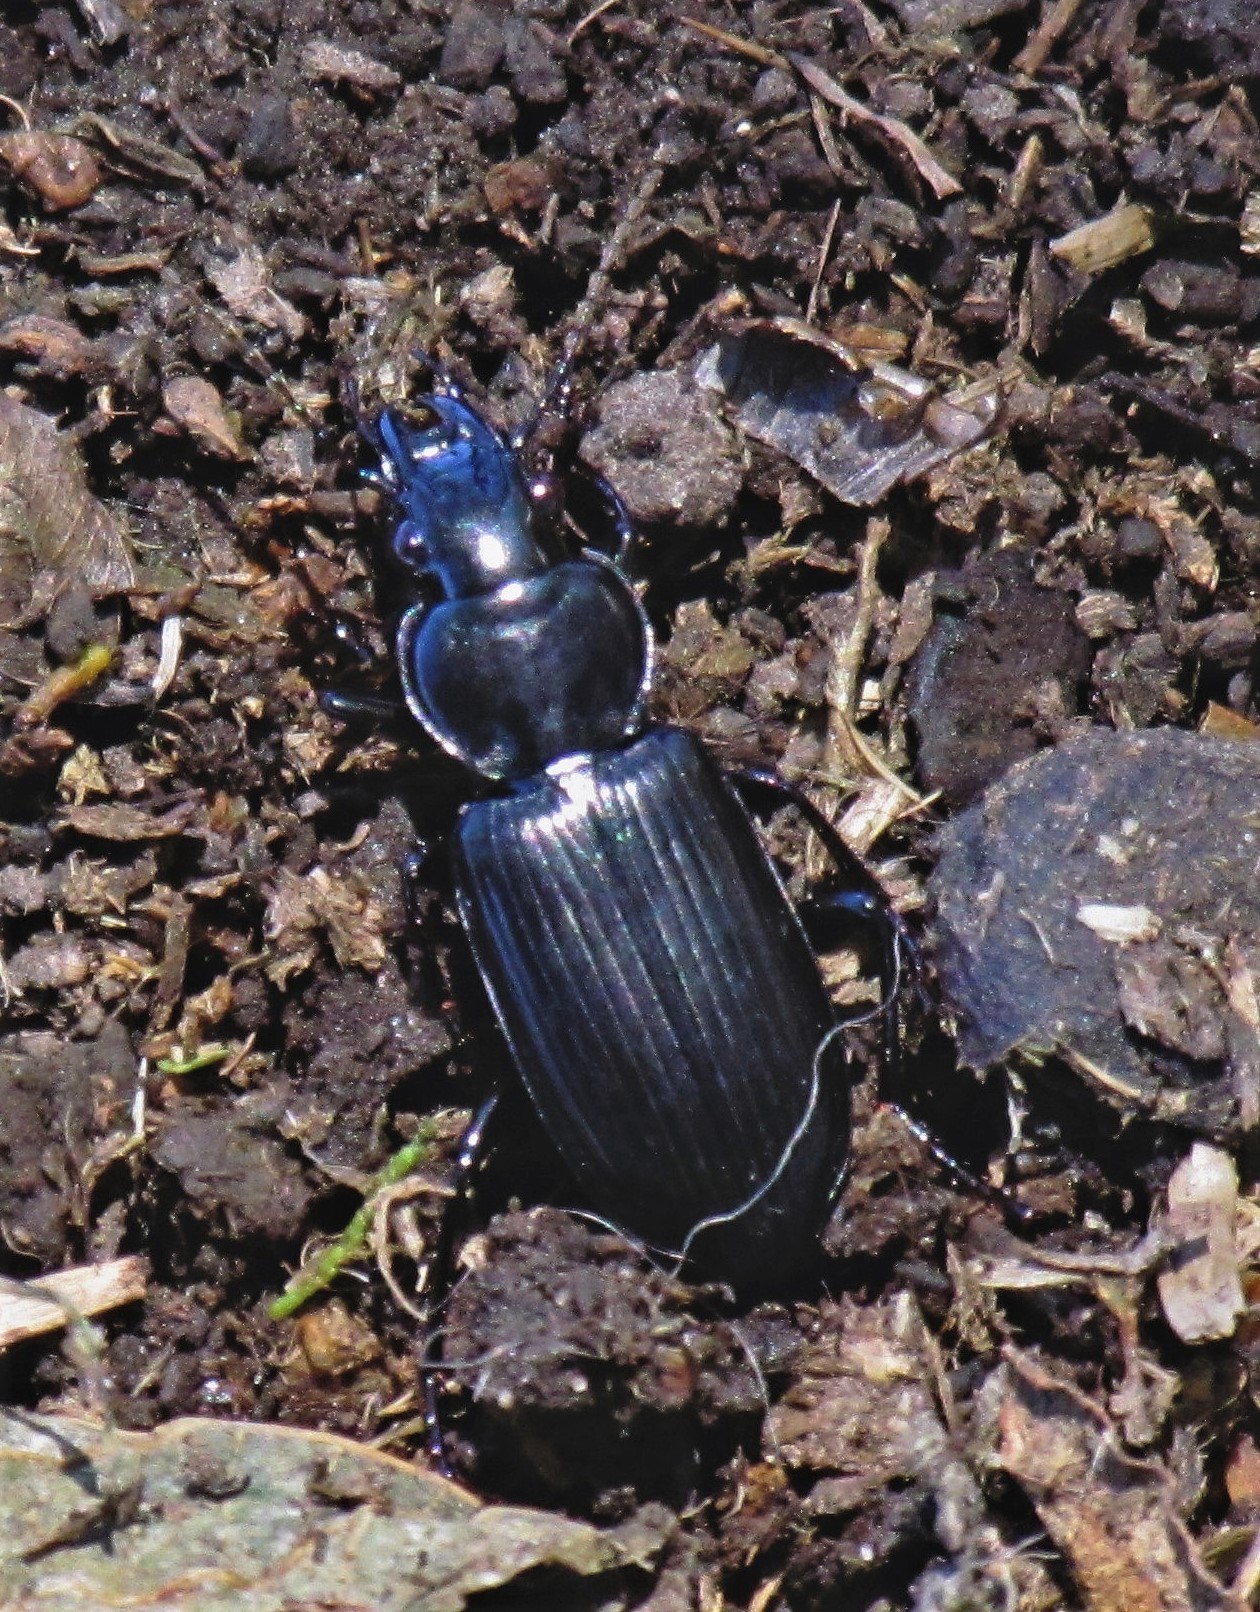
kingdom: Animalia
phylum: Arthropoda
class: Insecta
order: Coleoptera
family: Carabidae
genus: Pachymorphus
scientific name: Pachymorphus moerens
